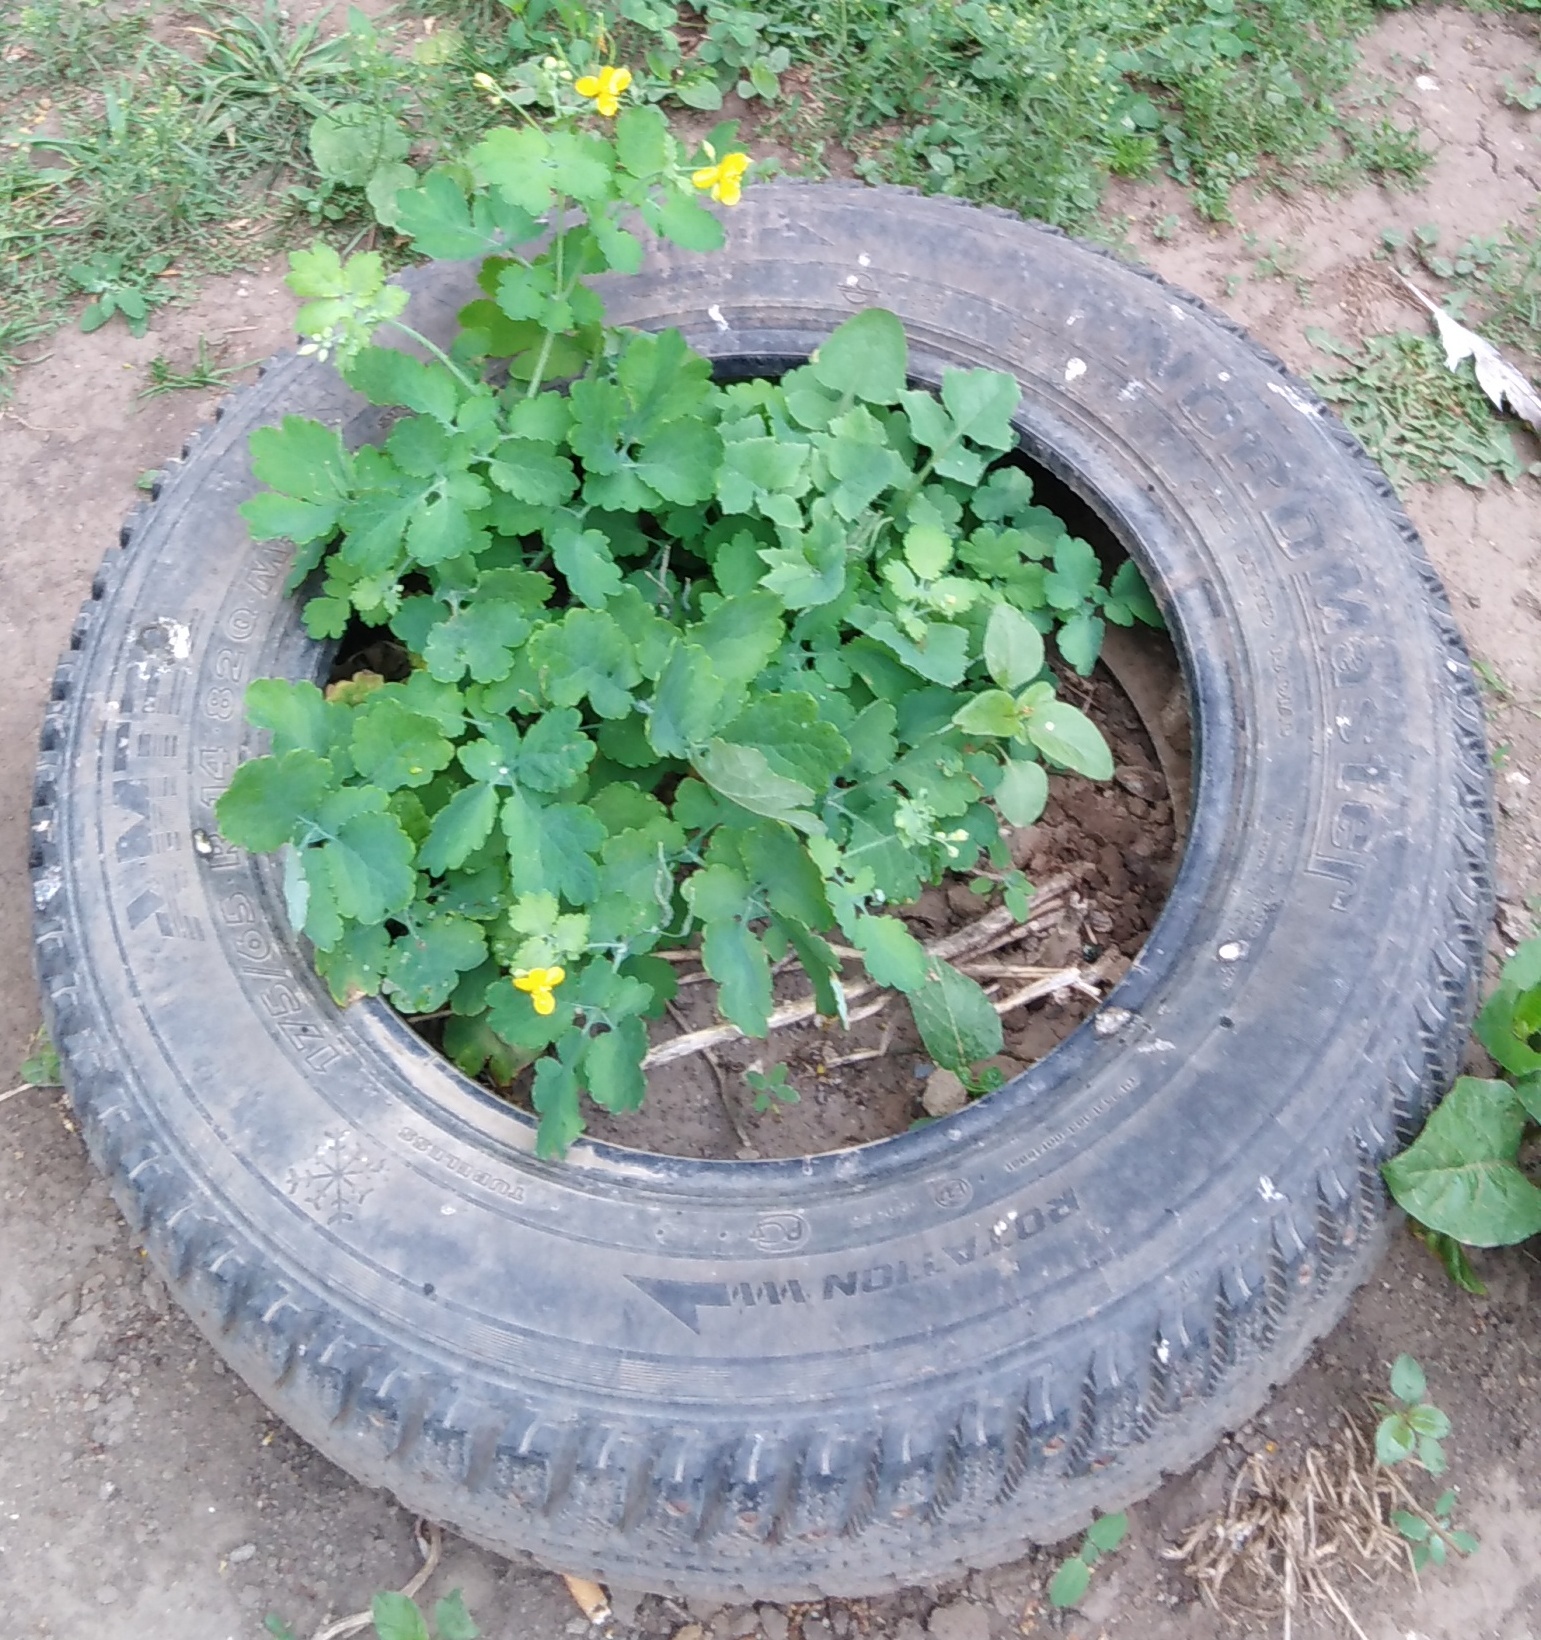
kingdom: Plantae
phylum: Tracheophyta
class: Magnoliopsida
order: Ranunculales
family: Papaveraceae
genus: Chelidonium
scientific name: Chelidonium majus
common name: Greater celandine
